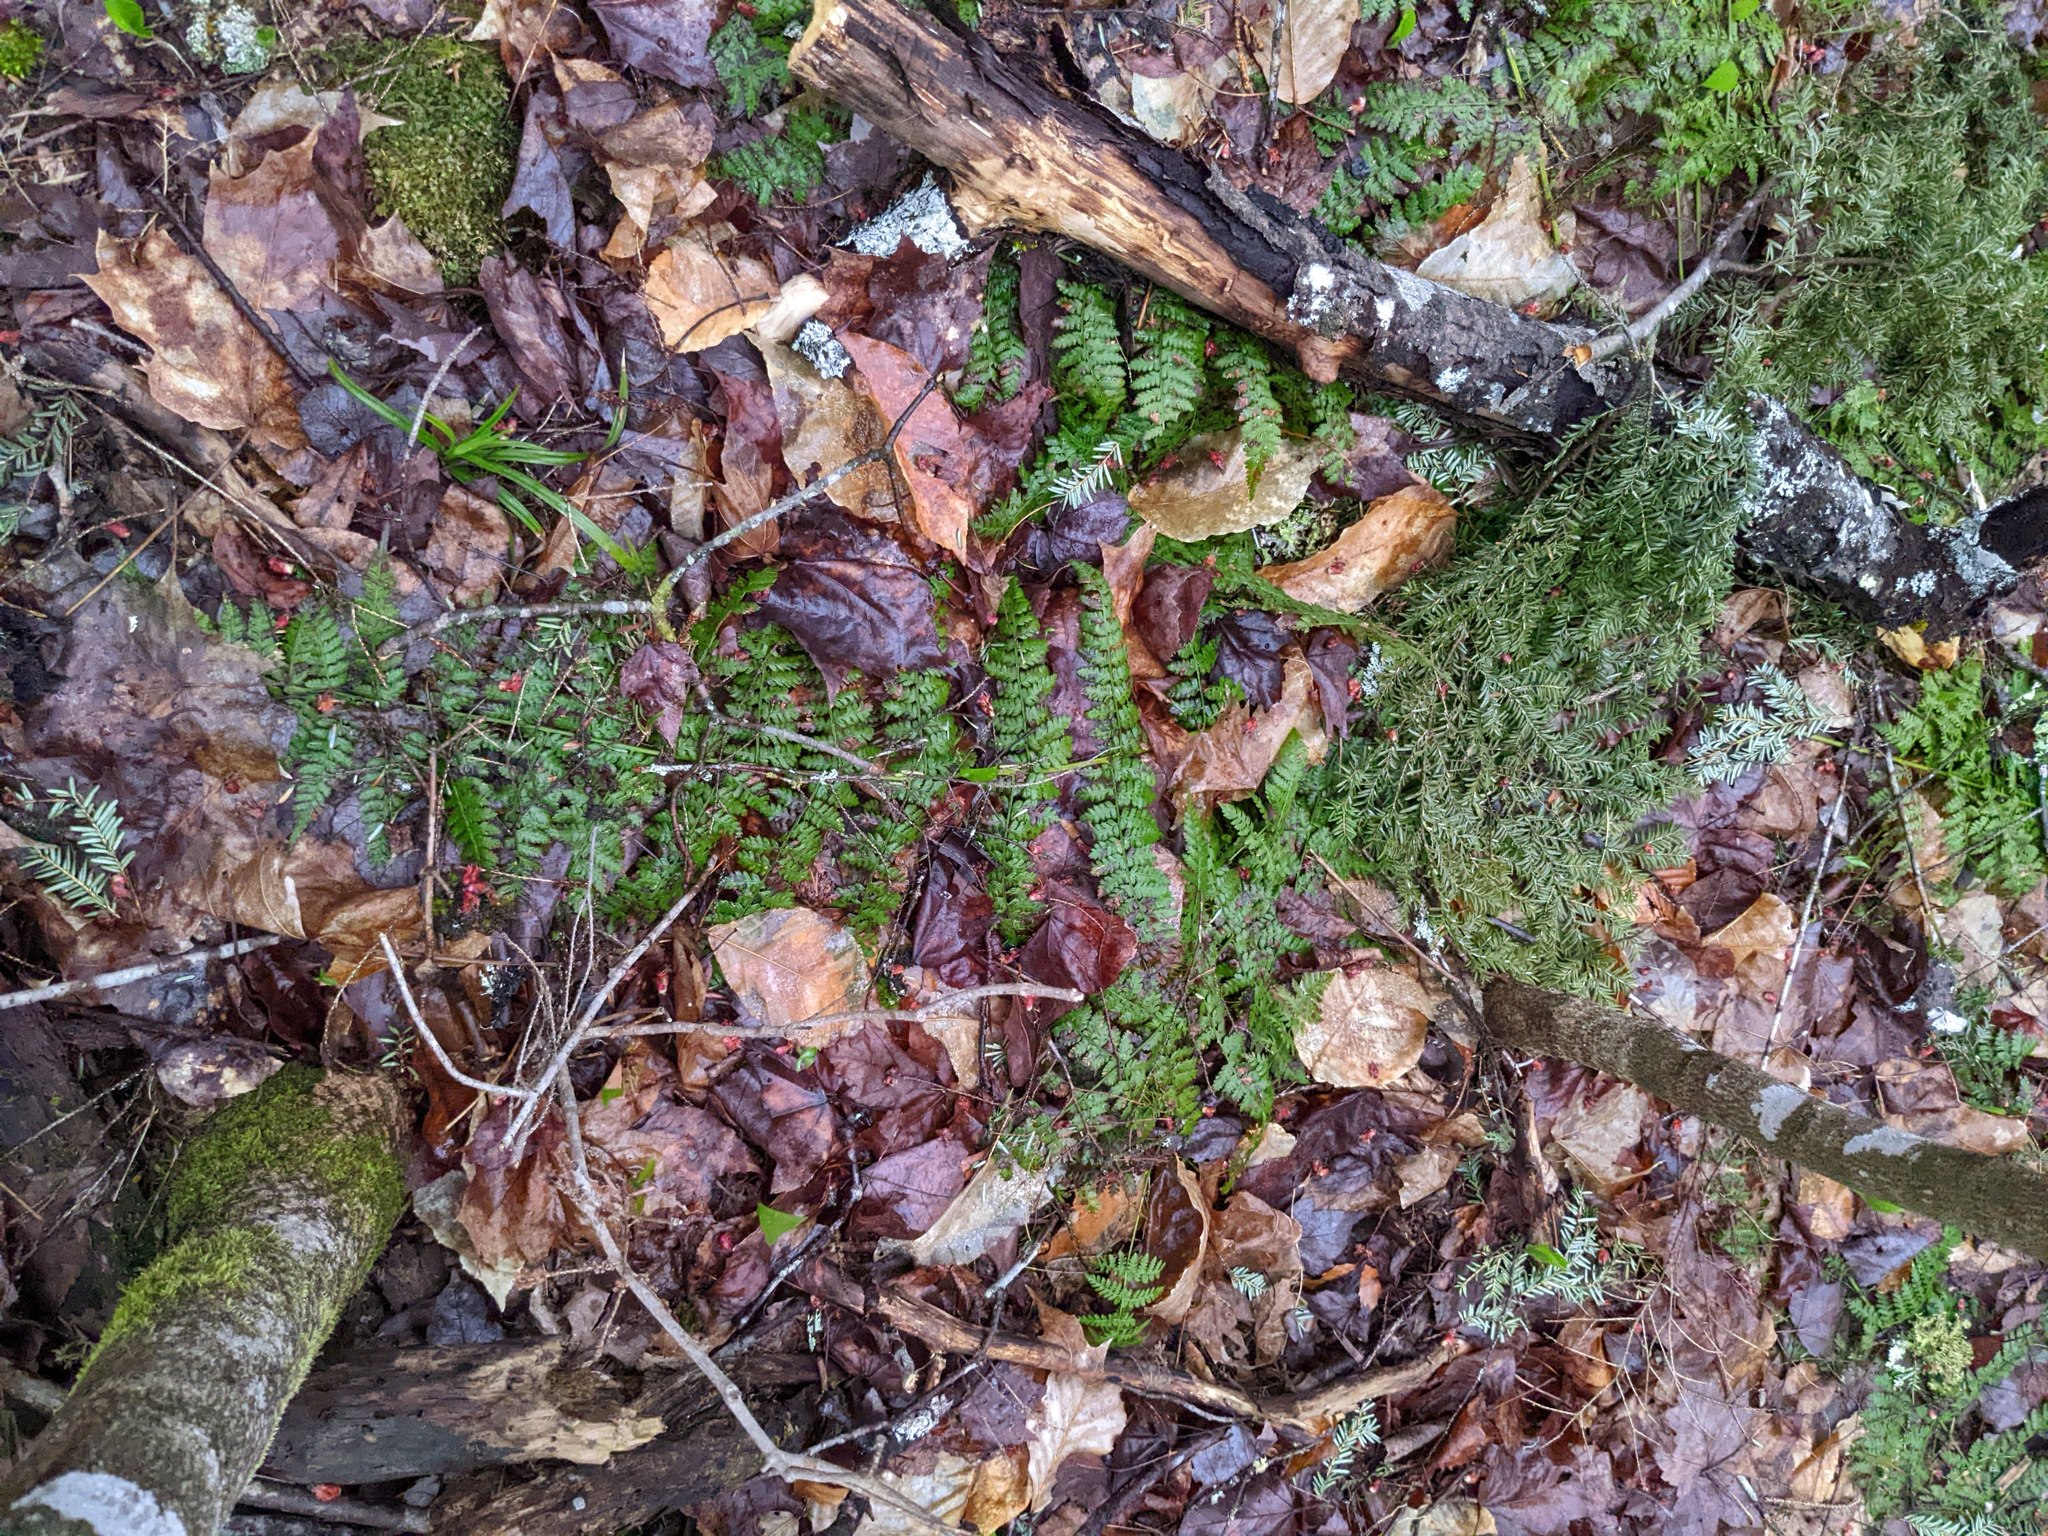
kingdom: Plantae
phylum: Tracheophyta
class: Polypodiopsida
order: Polypodiales
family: Dryopteridaceae
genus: Dryopteris
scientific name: Dryopteris intermedia
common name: Evergreen wood fern
